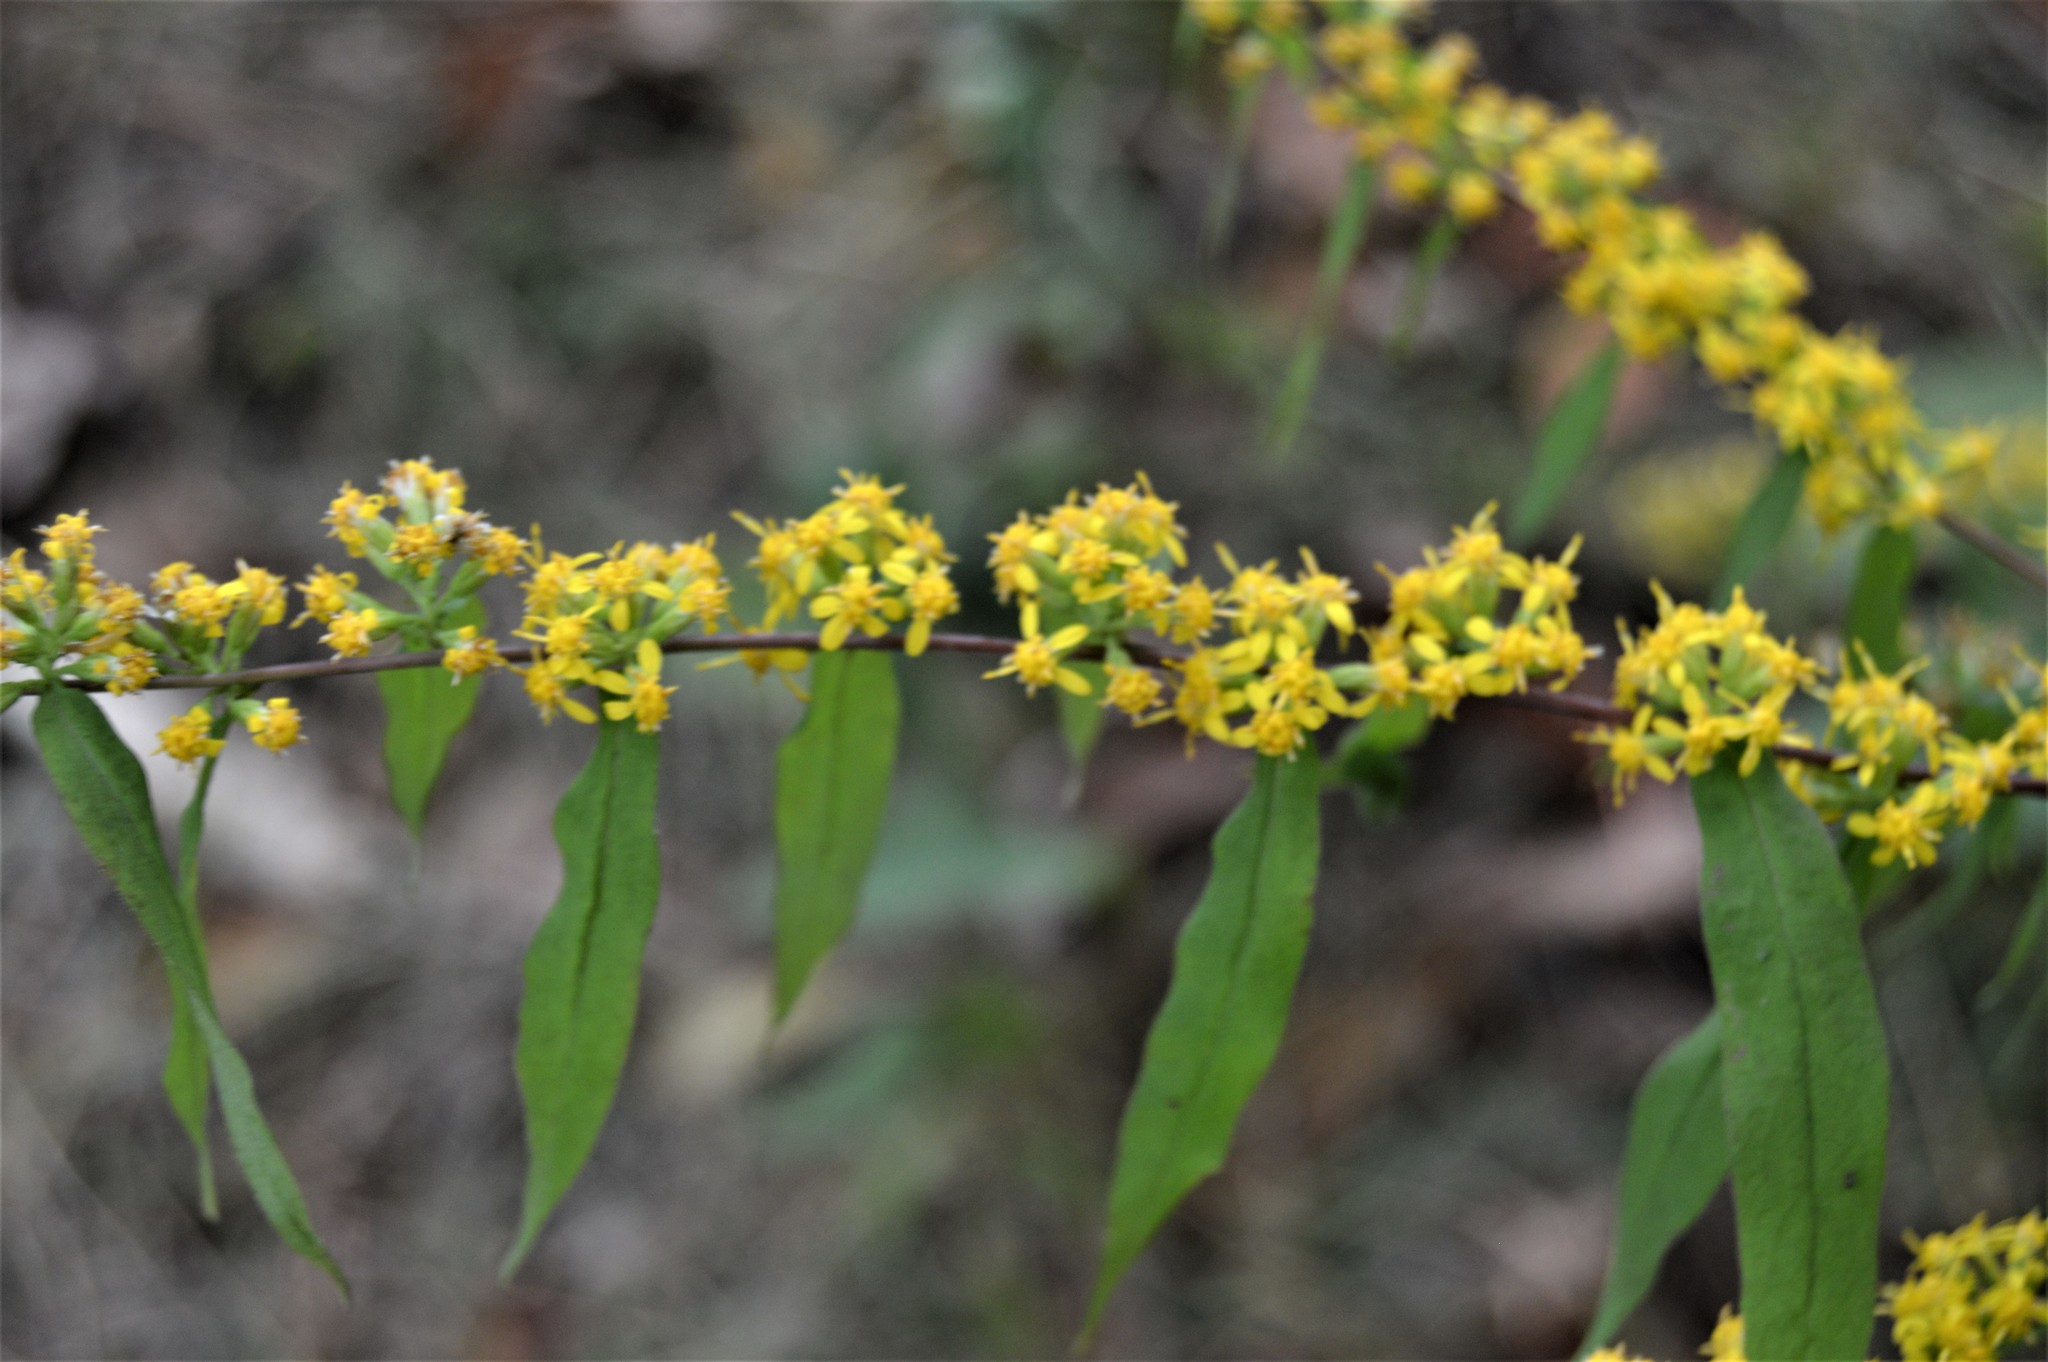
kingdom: Plantae
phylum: Tracheophyta
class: Magnoliopsida
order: Asterales
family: Asteraceae
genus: Solidago
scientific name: Solidago caesia
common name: Woodland goldenrod
